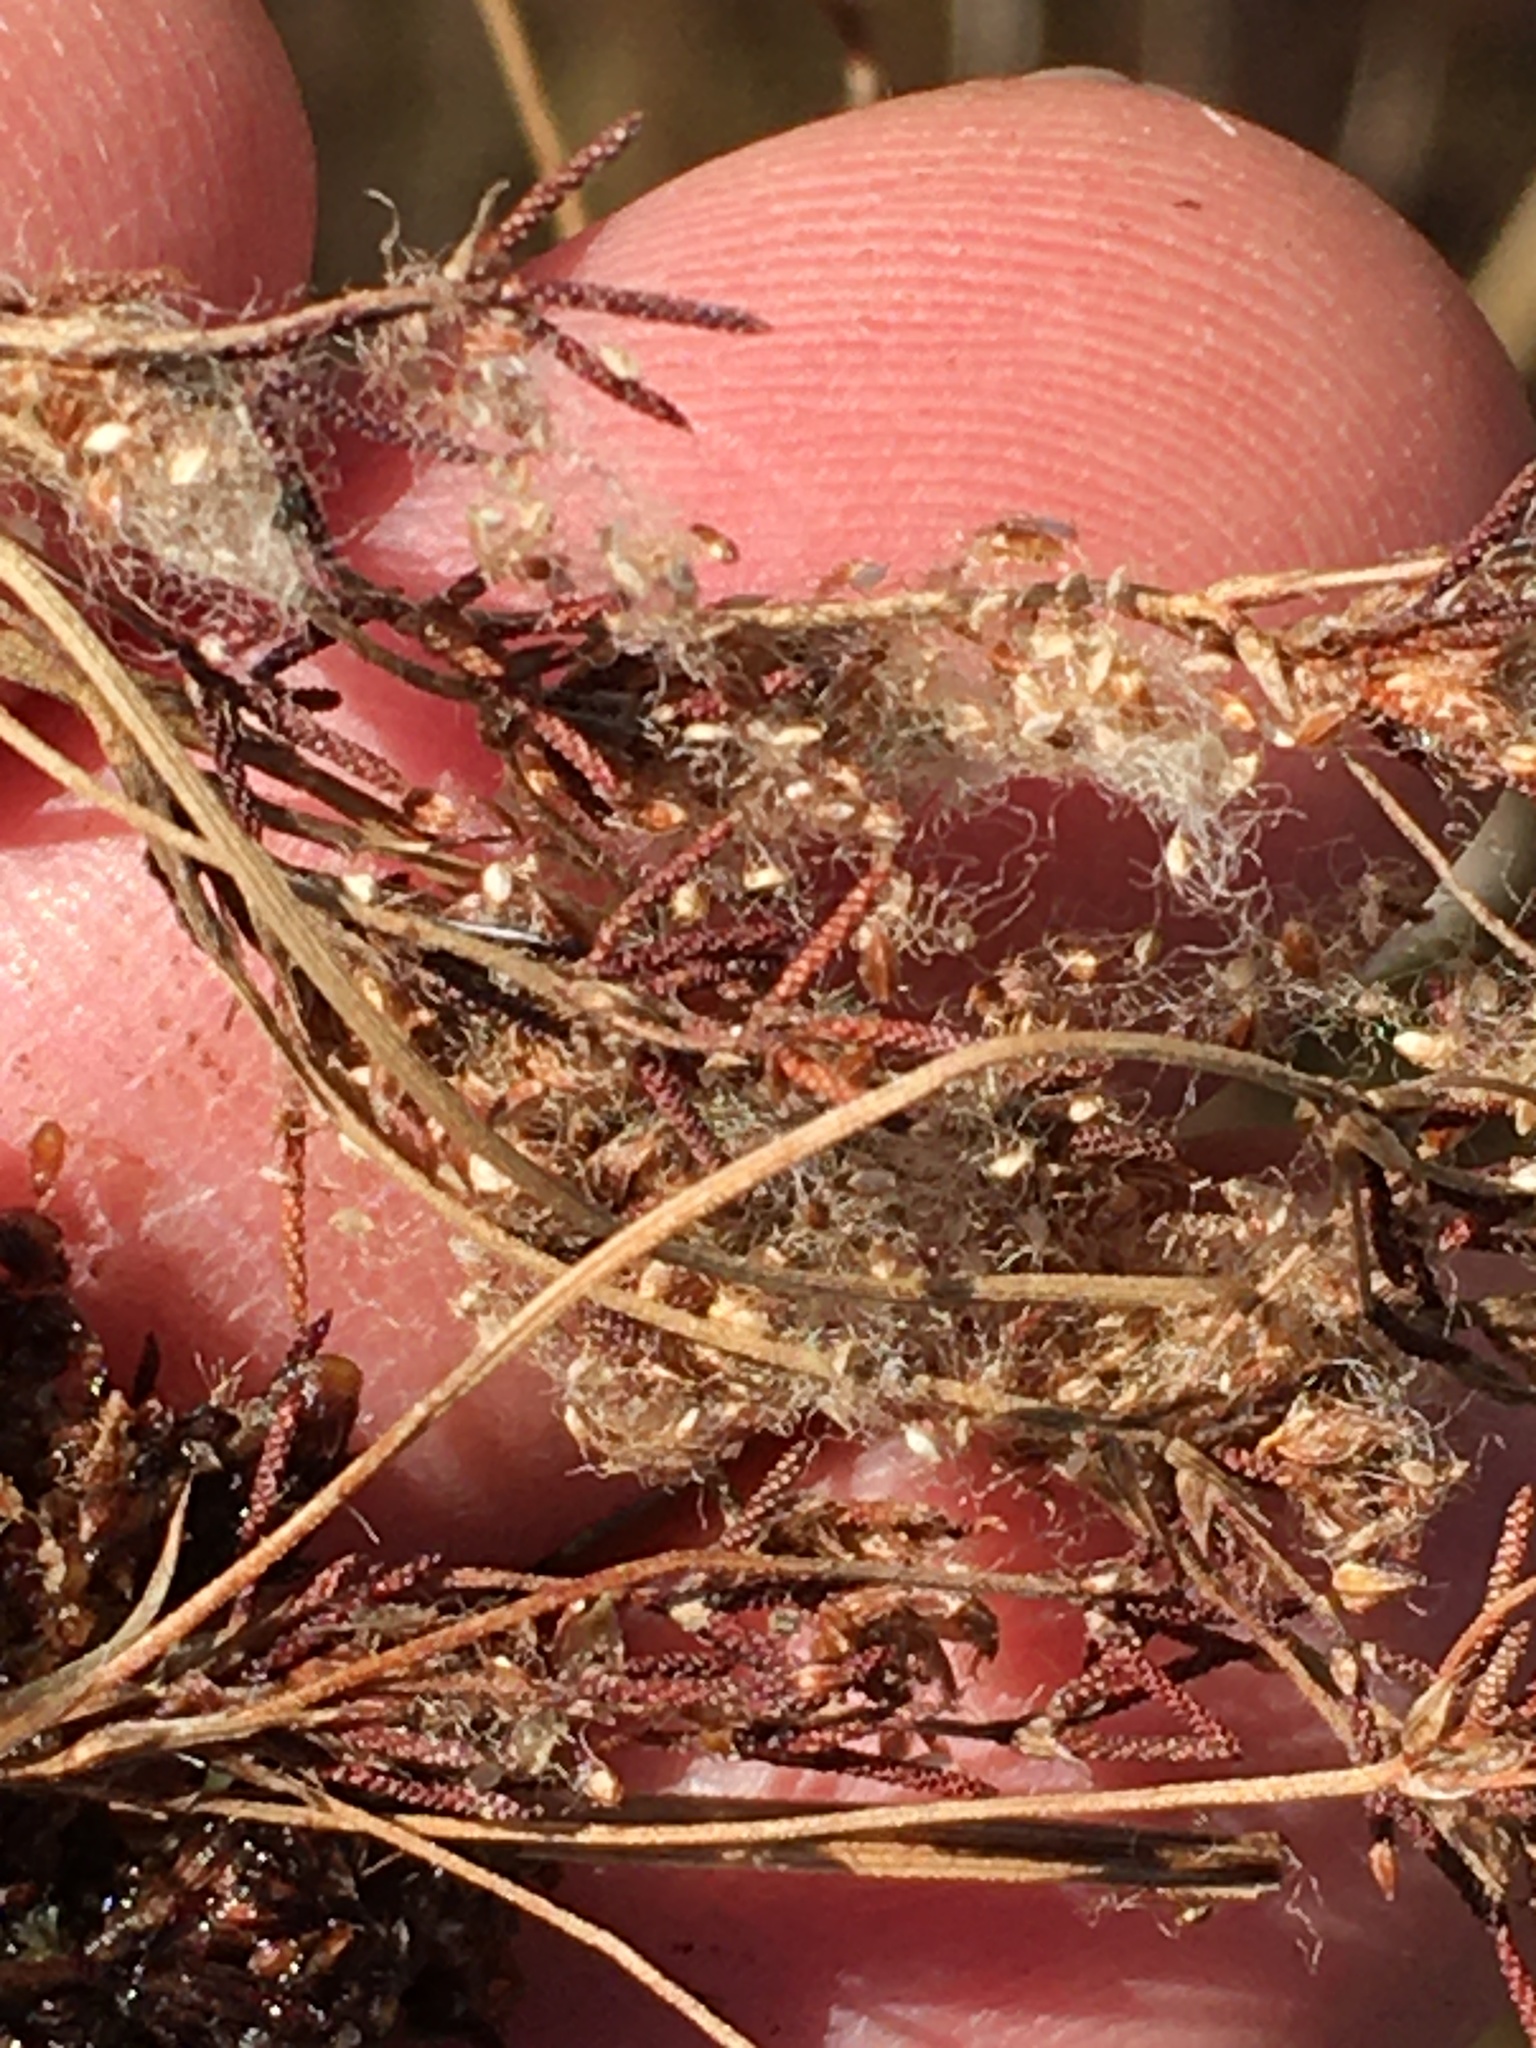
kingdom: Plantae
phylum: Tracheophyta
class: Liliopsida
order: Poales
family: Cyperaceae
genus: Scirpus
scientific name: Scirpus cyperinus
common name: Black-sheathed bulrush
